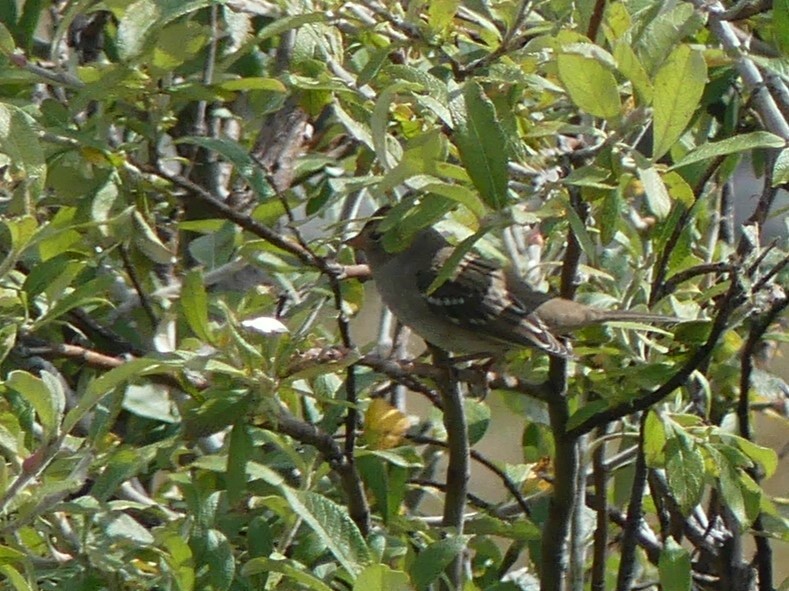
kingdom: Animalia
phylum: Chordata
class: Aves
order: Passeriformes
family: Passerellidae
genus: Zonotrichia
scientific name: Zonotrichia leucophrys
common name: White-crowned sparrow
